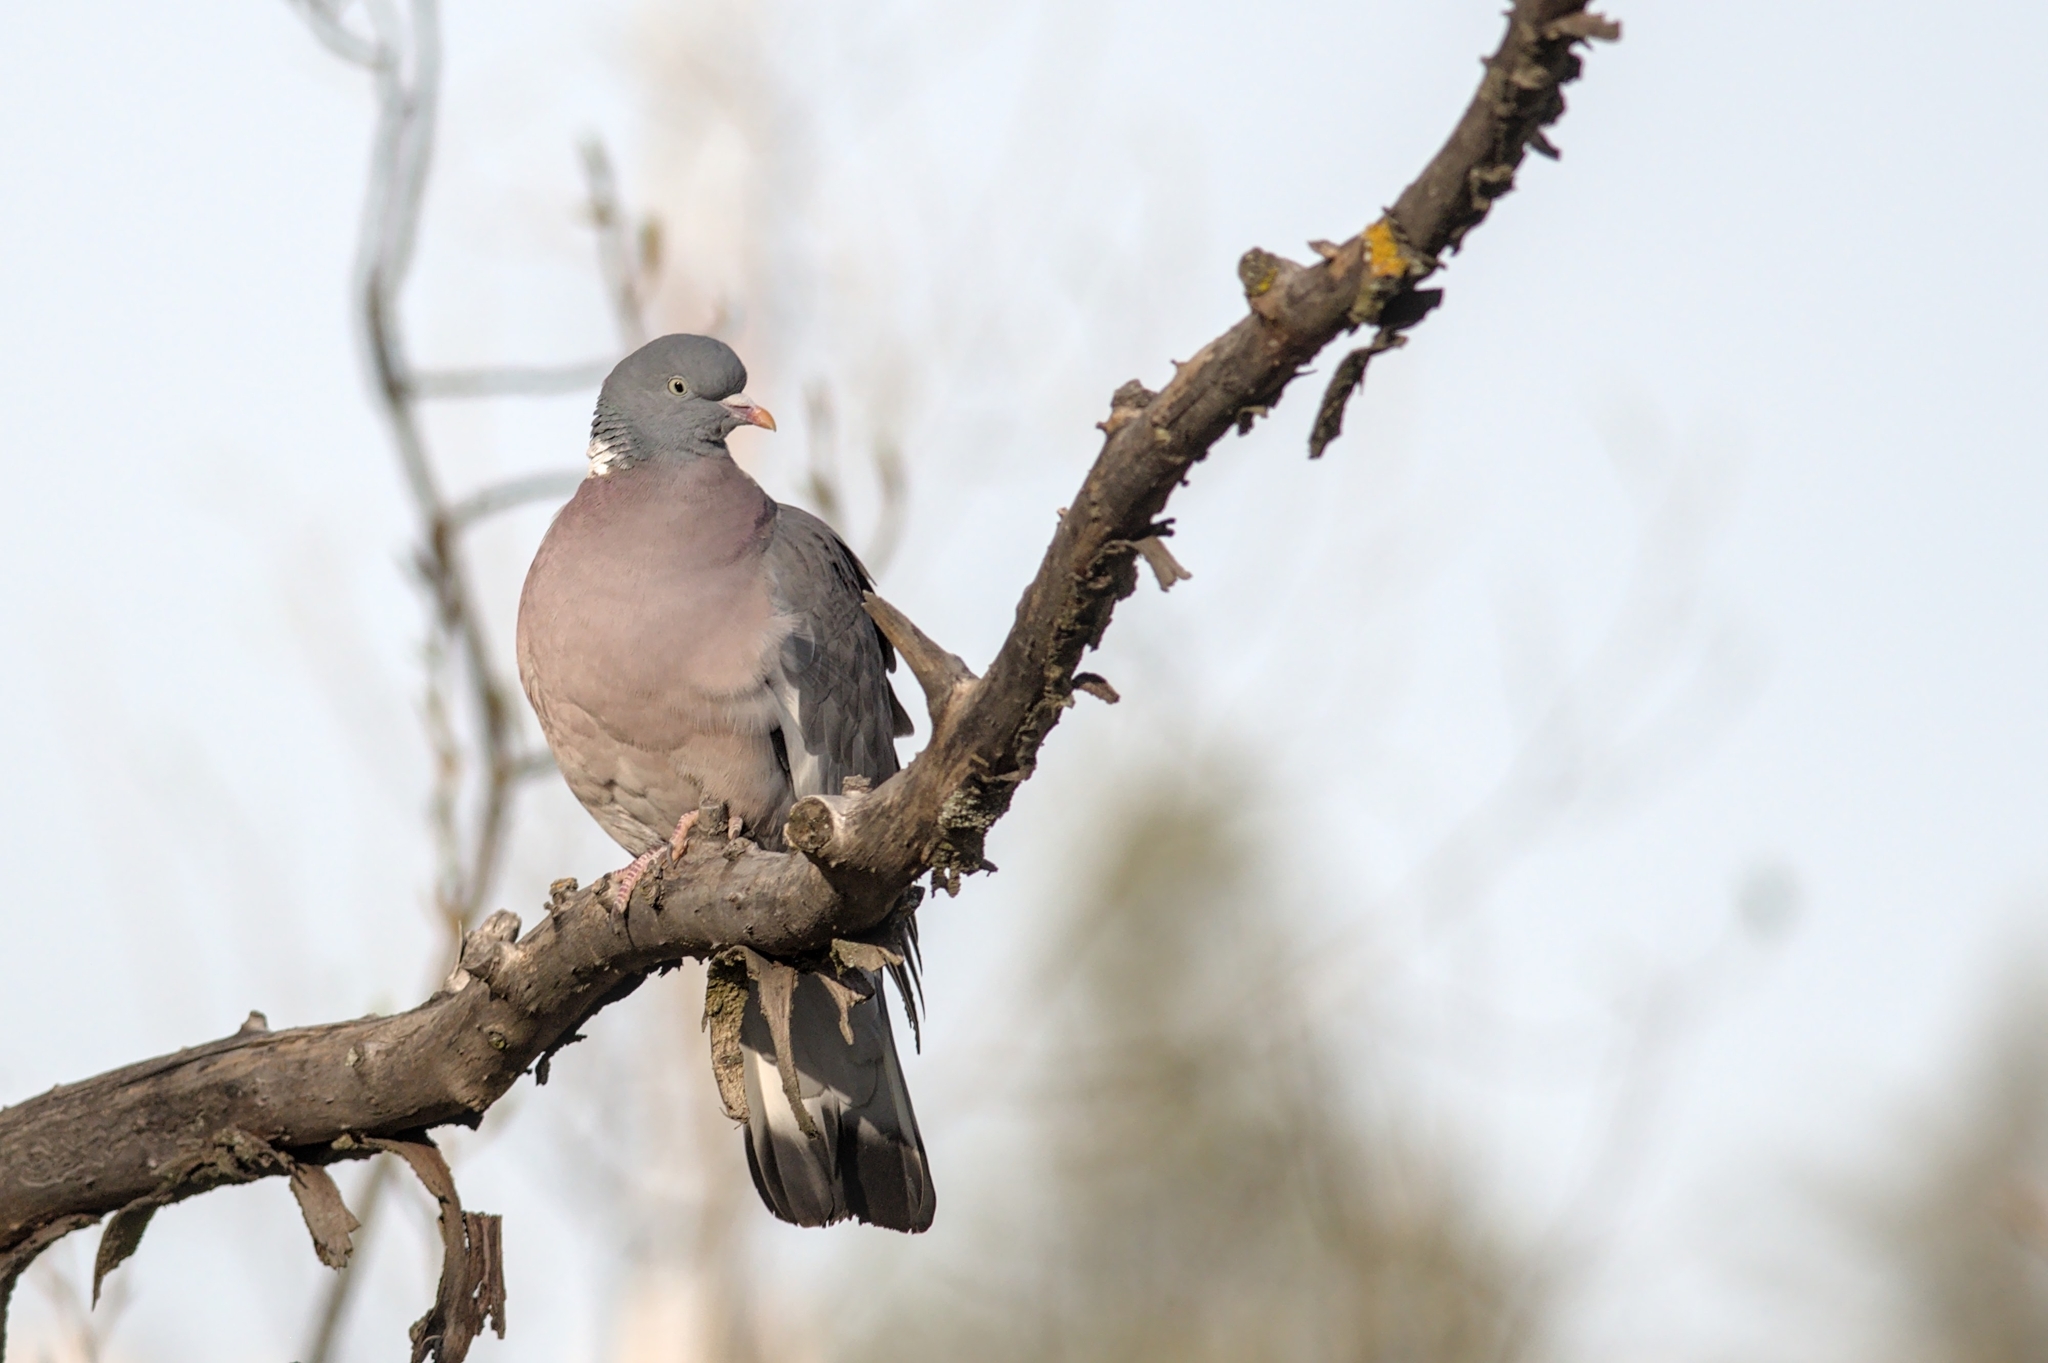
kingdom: Animalia
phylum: Chordata
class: Aves
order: Columbiformes
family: Columbidae
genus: Columba
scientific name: Columba palumbus
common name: Common wood pigeon
